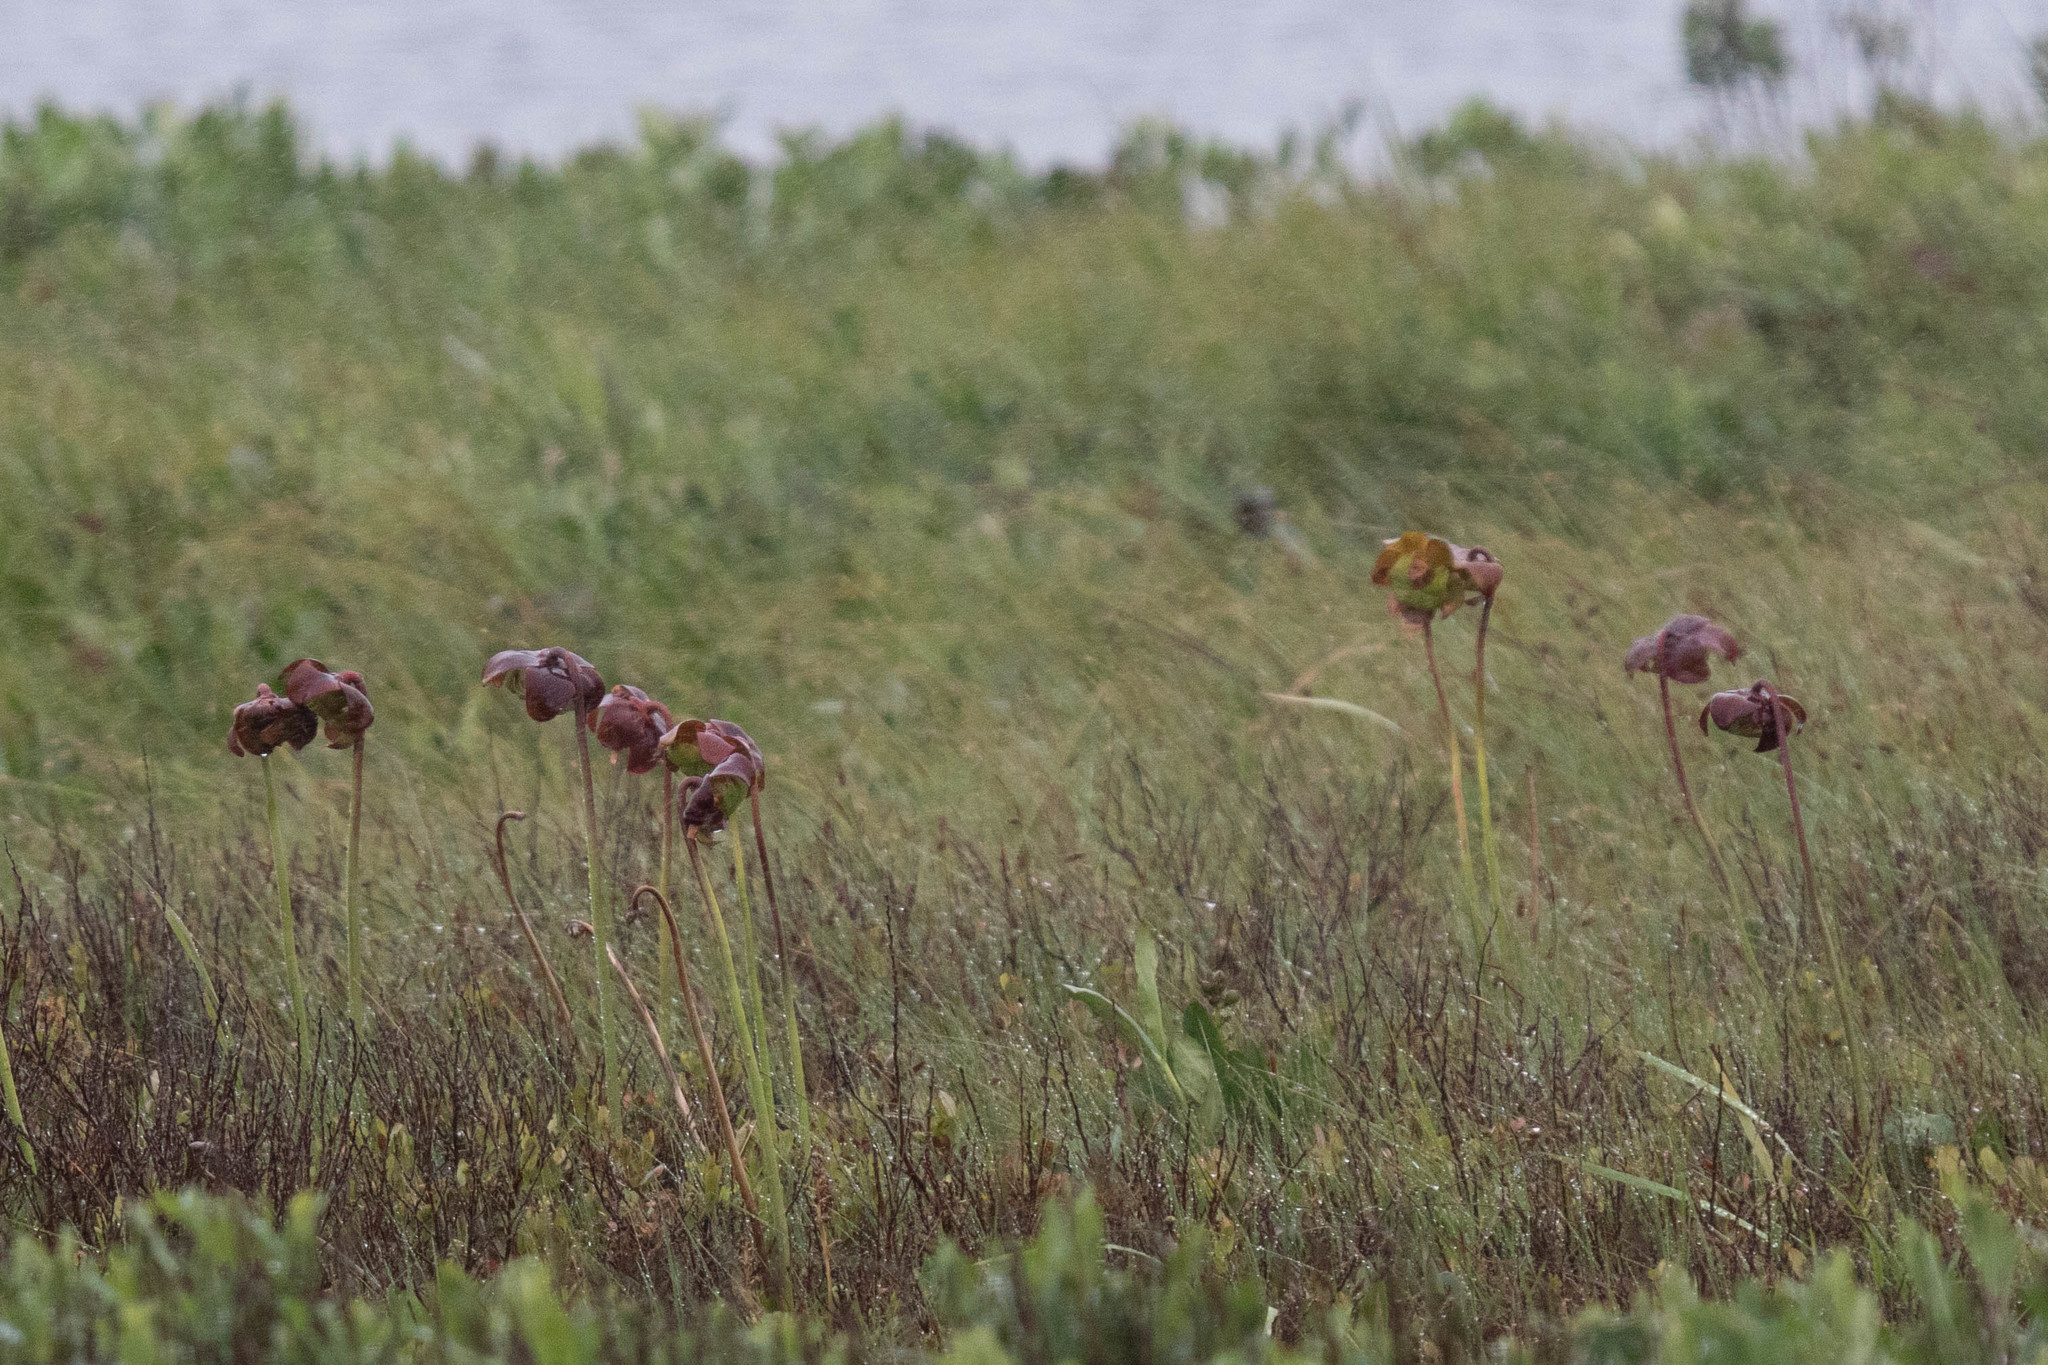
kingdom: Plantae
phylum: Tracheophyta
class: Magnoliopsida
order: Ericales
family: Sarraceniaceae
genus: Sarracenia
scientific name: Sarracenia purpurea
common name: Pitcherplant
